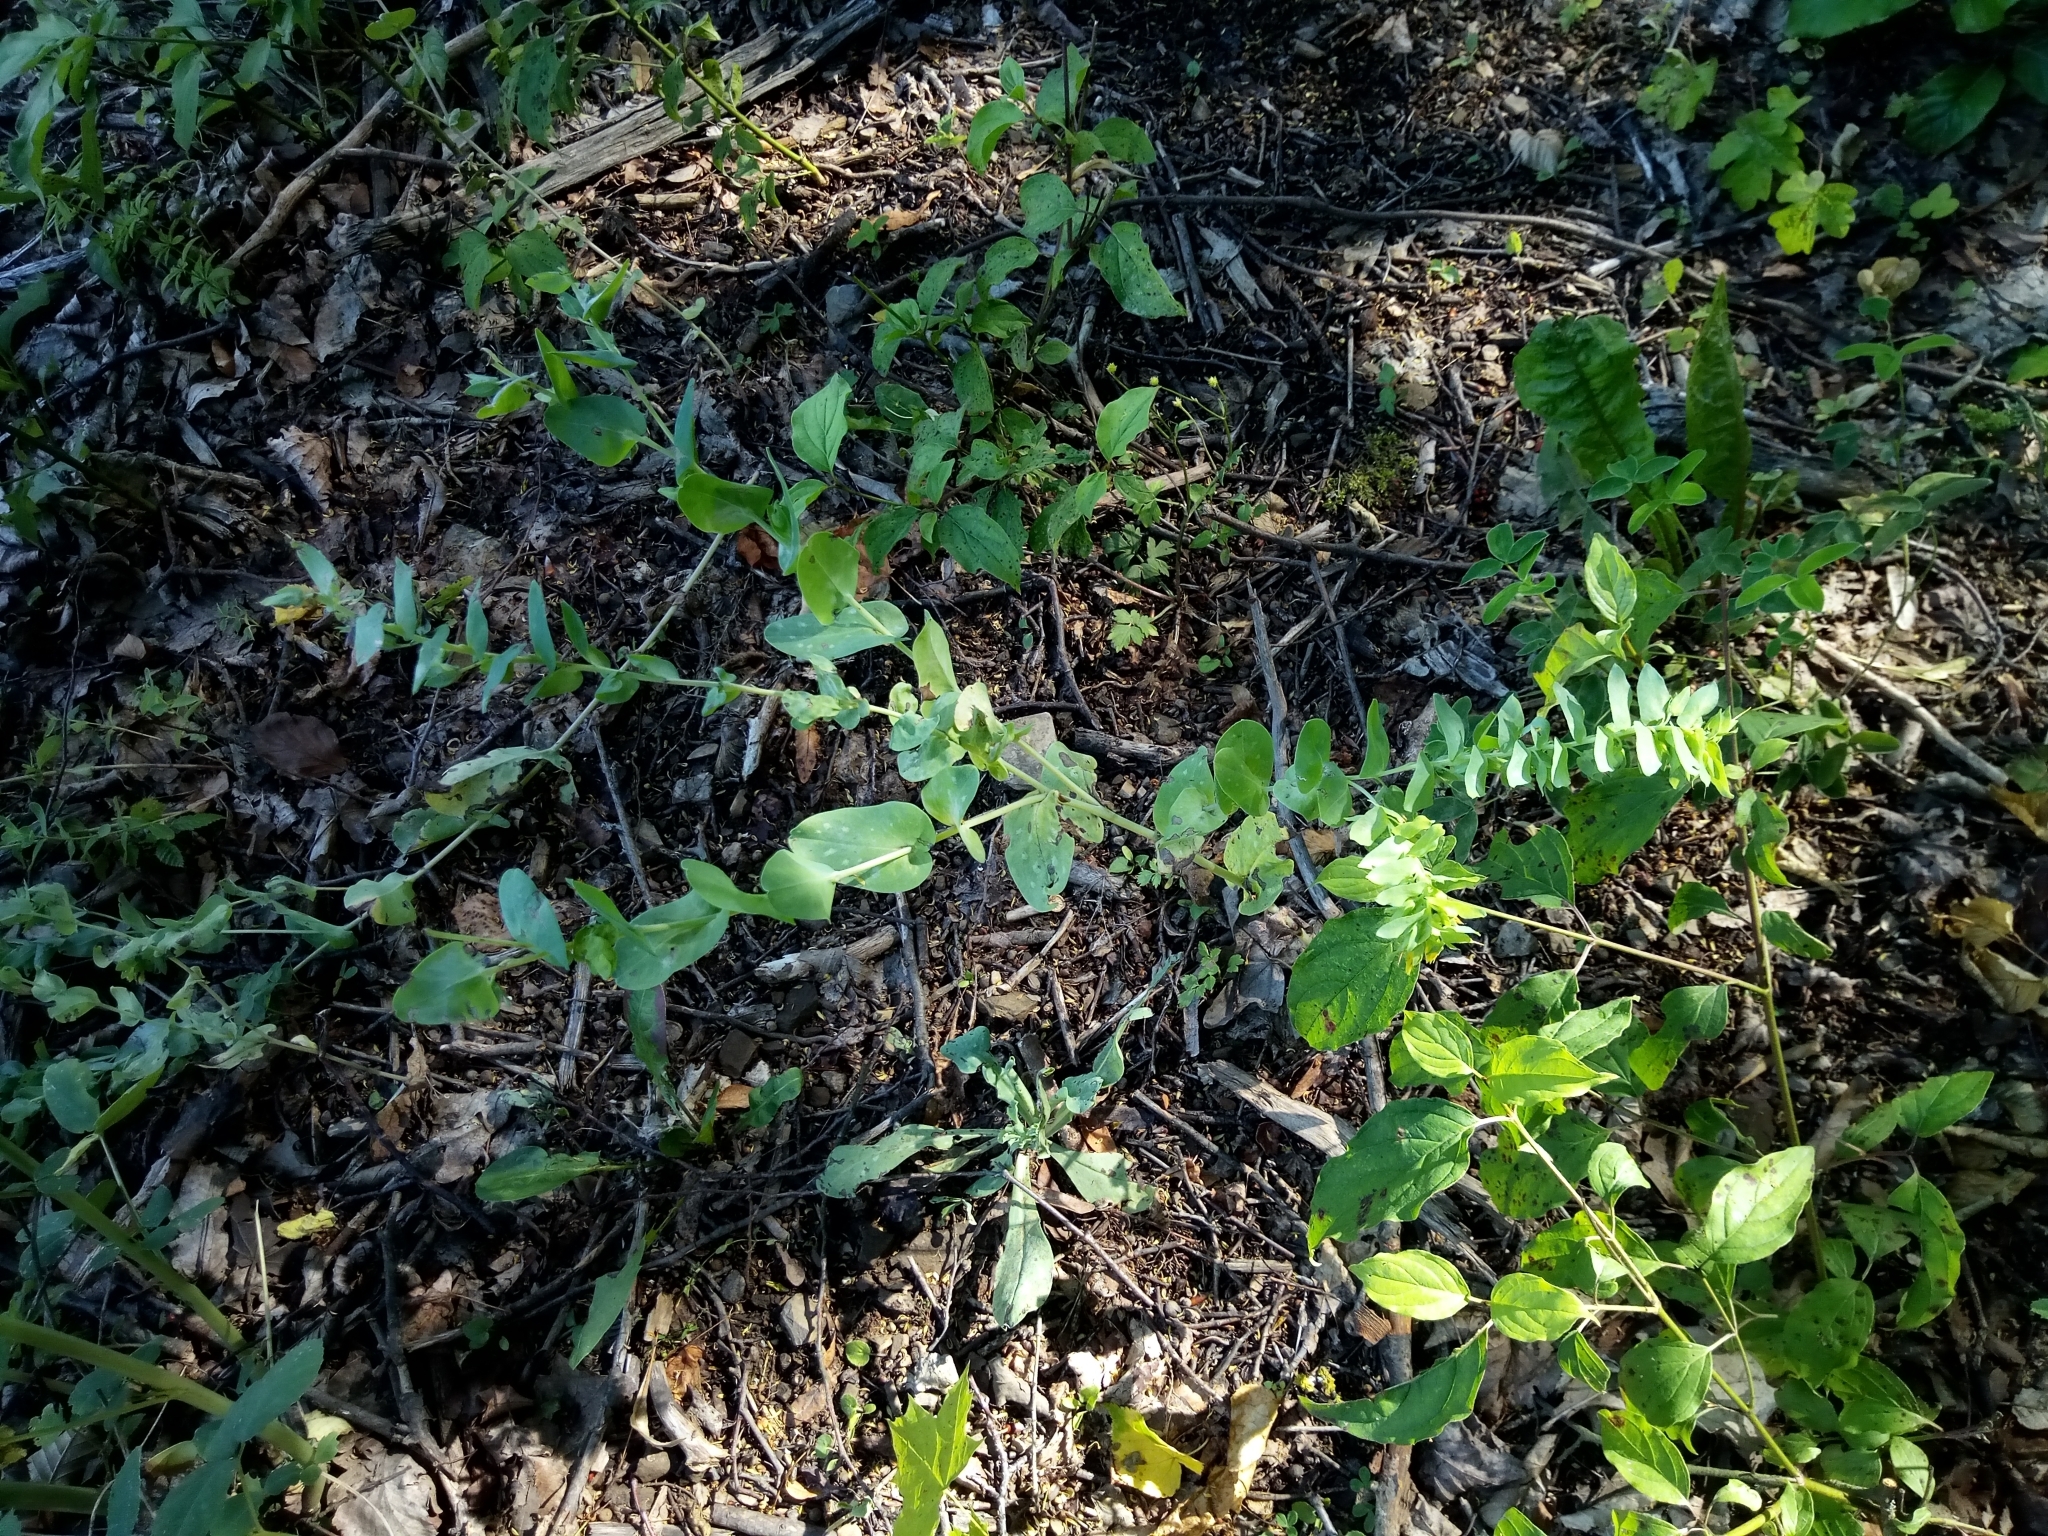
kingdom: Plantae
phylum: Tracheophyta
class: Magnoliopsida
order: Boraginales
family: Boraginaceae
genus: Cerinthe
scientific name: Cerinthe minor
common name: Lesser honeywort
